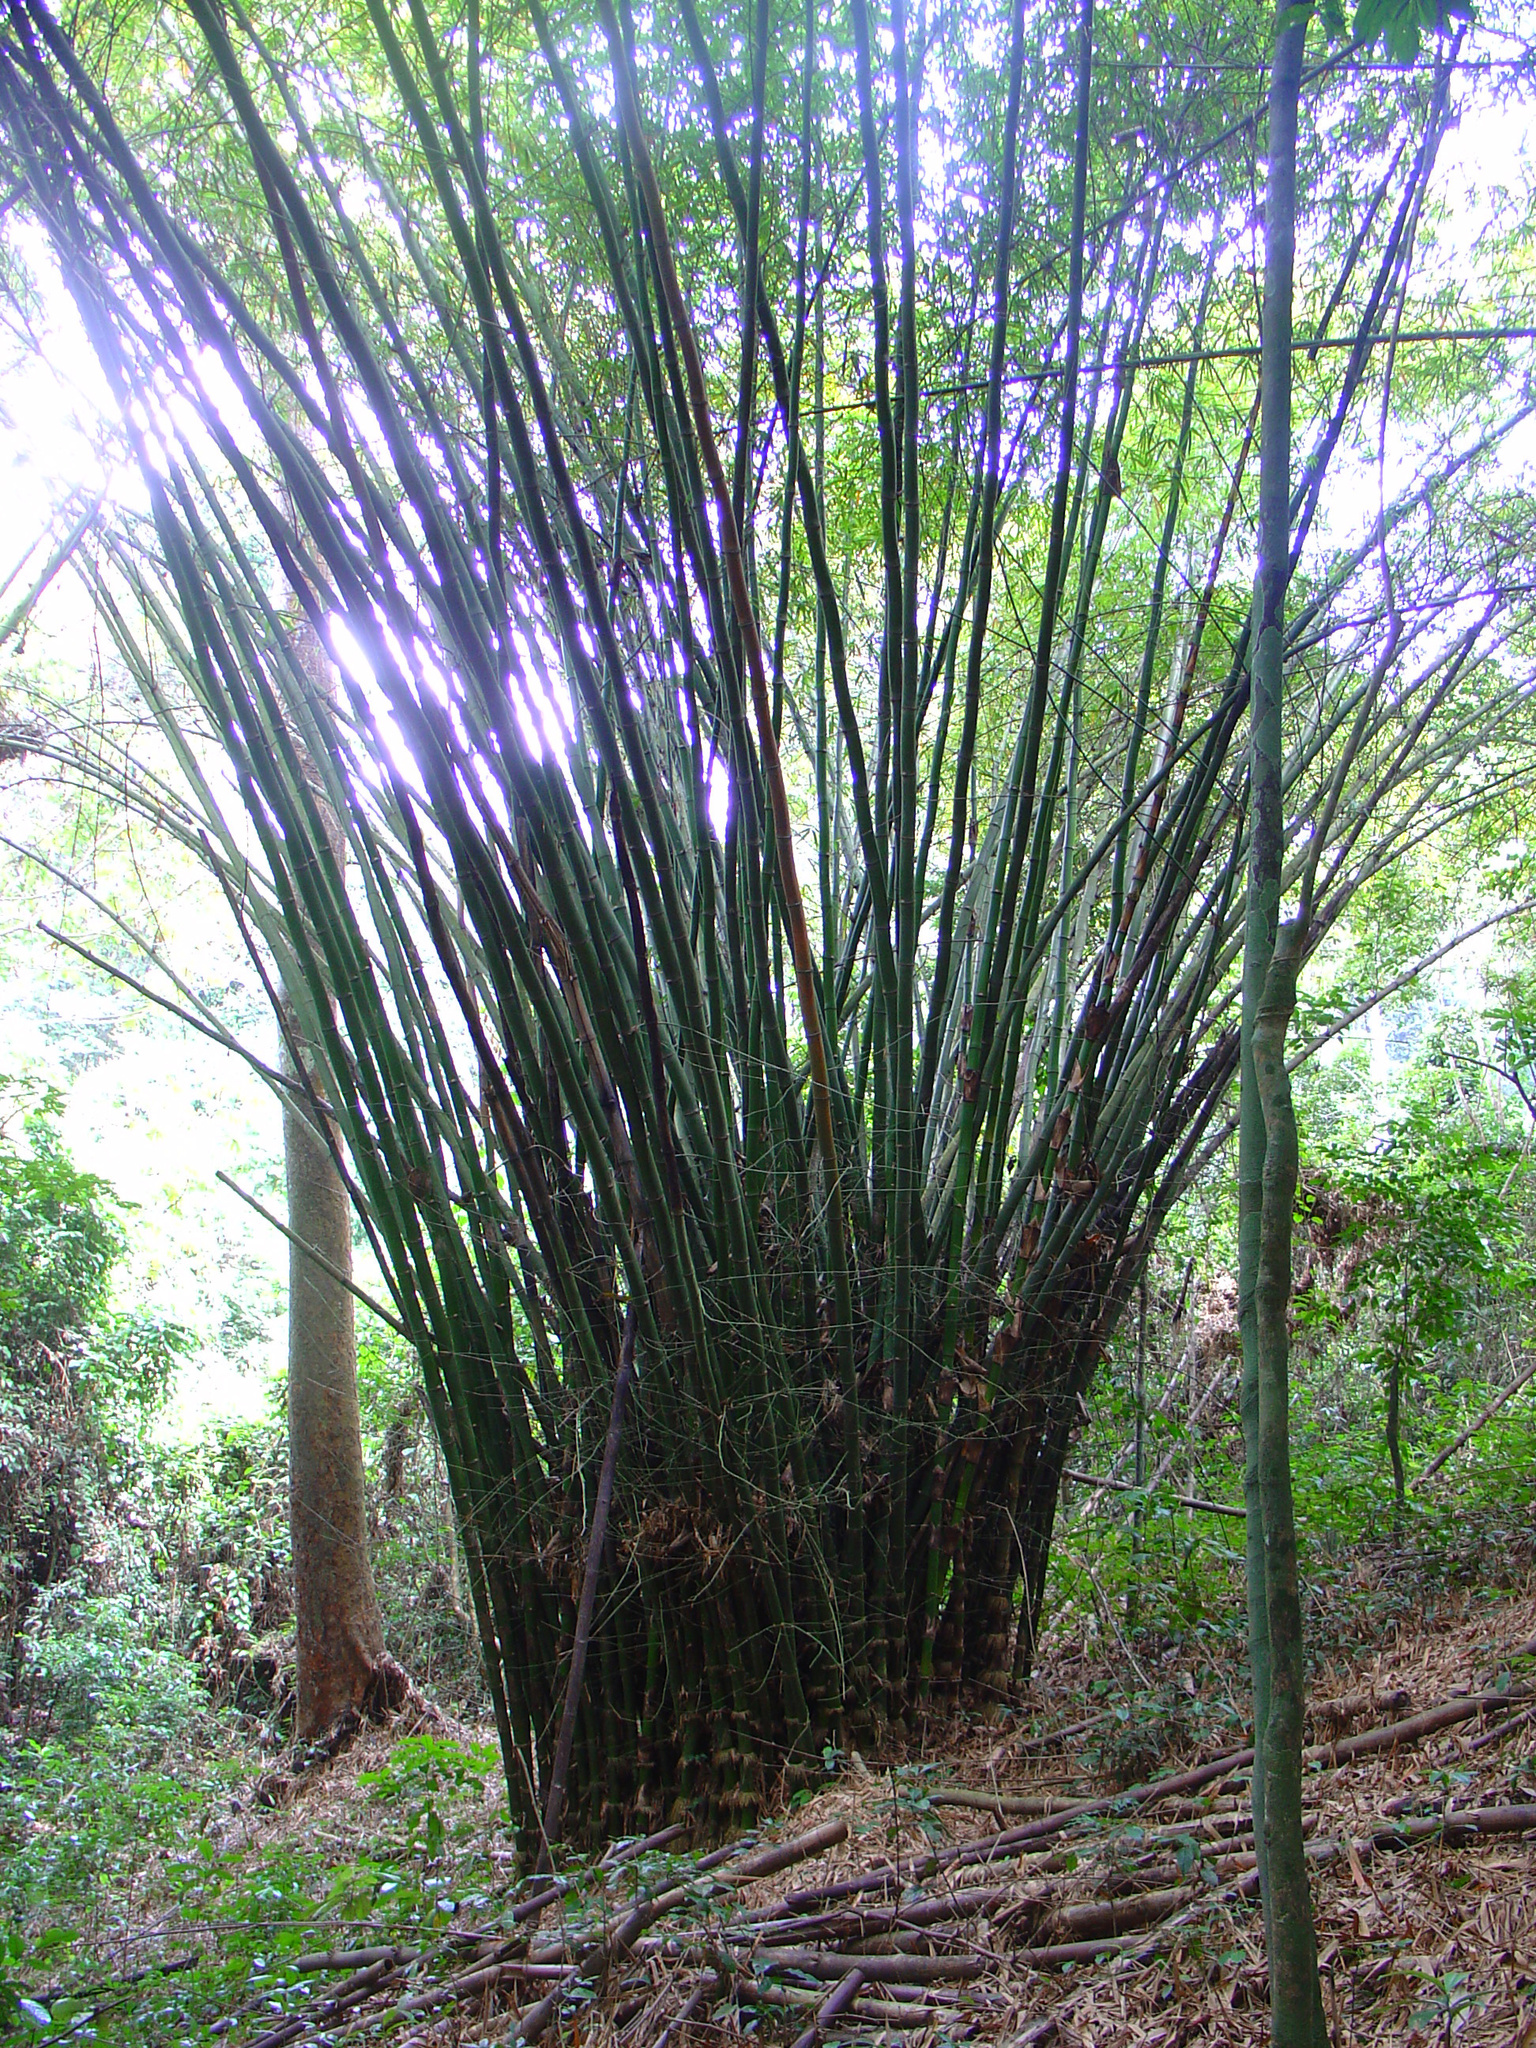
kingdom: Plantae
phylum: Tracheophyta
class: Liliopsida
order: Poales
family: Poaceae
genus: Bambusa
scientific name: Bambusa vulgaris
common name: Common bamboo
